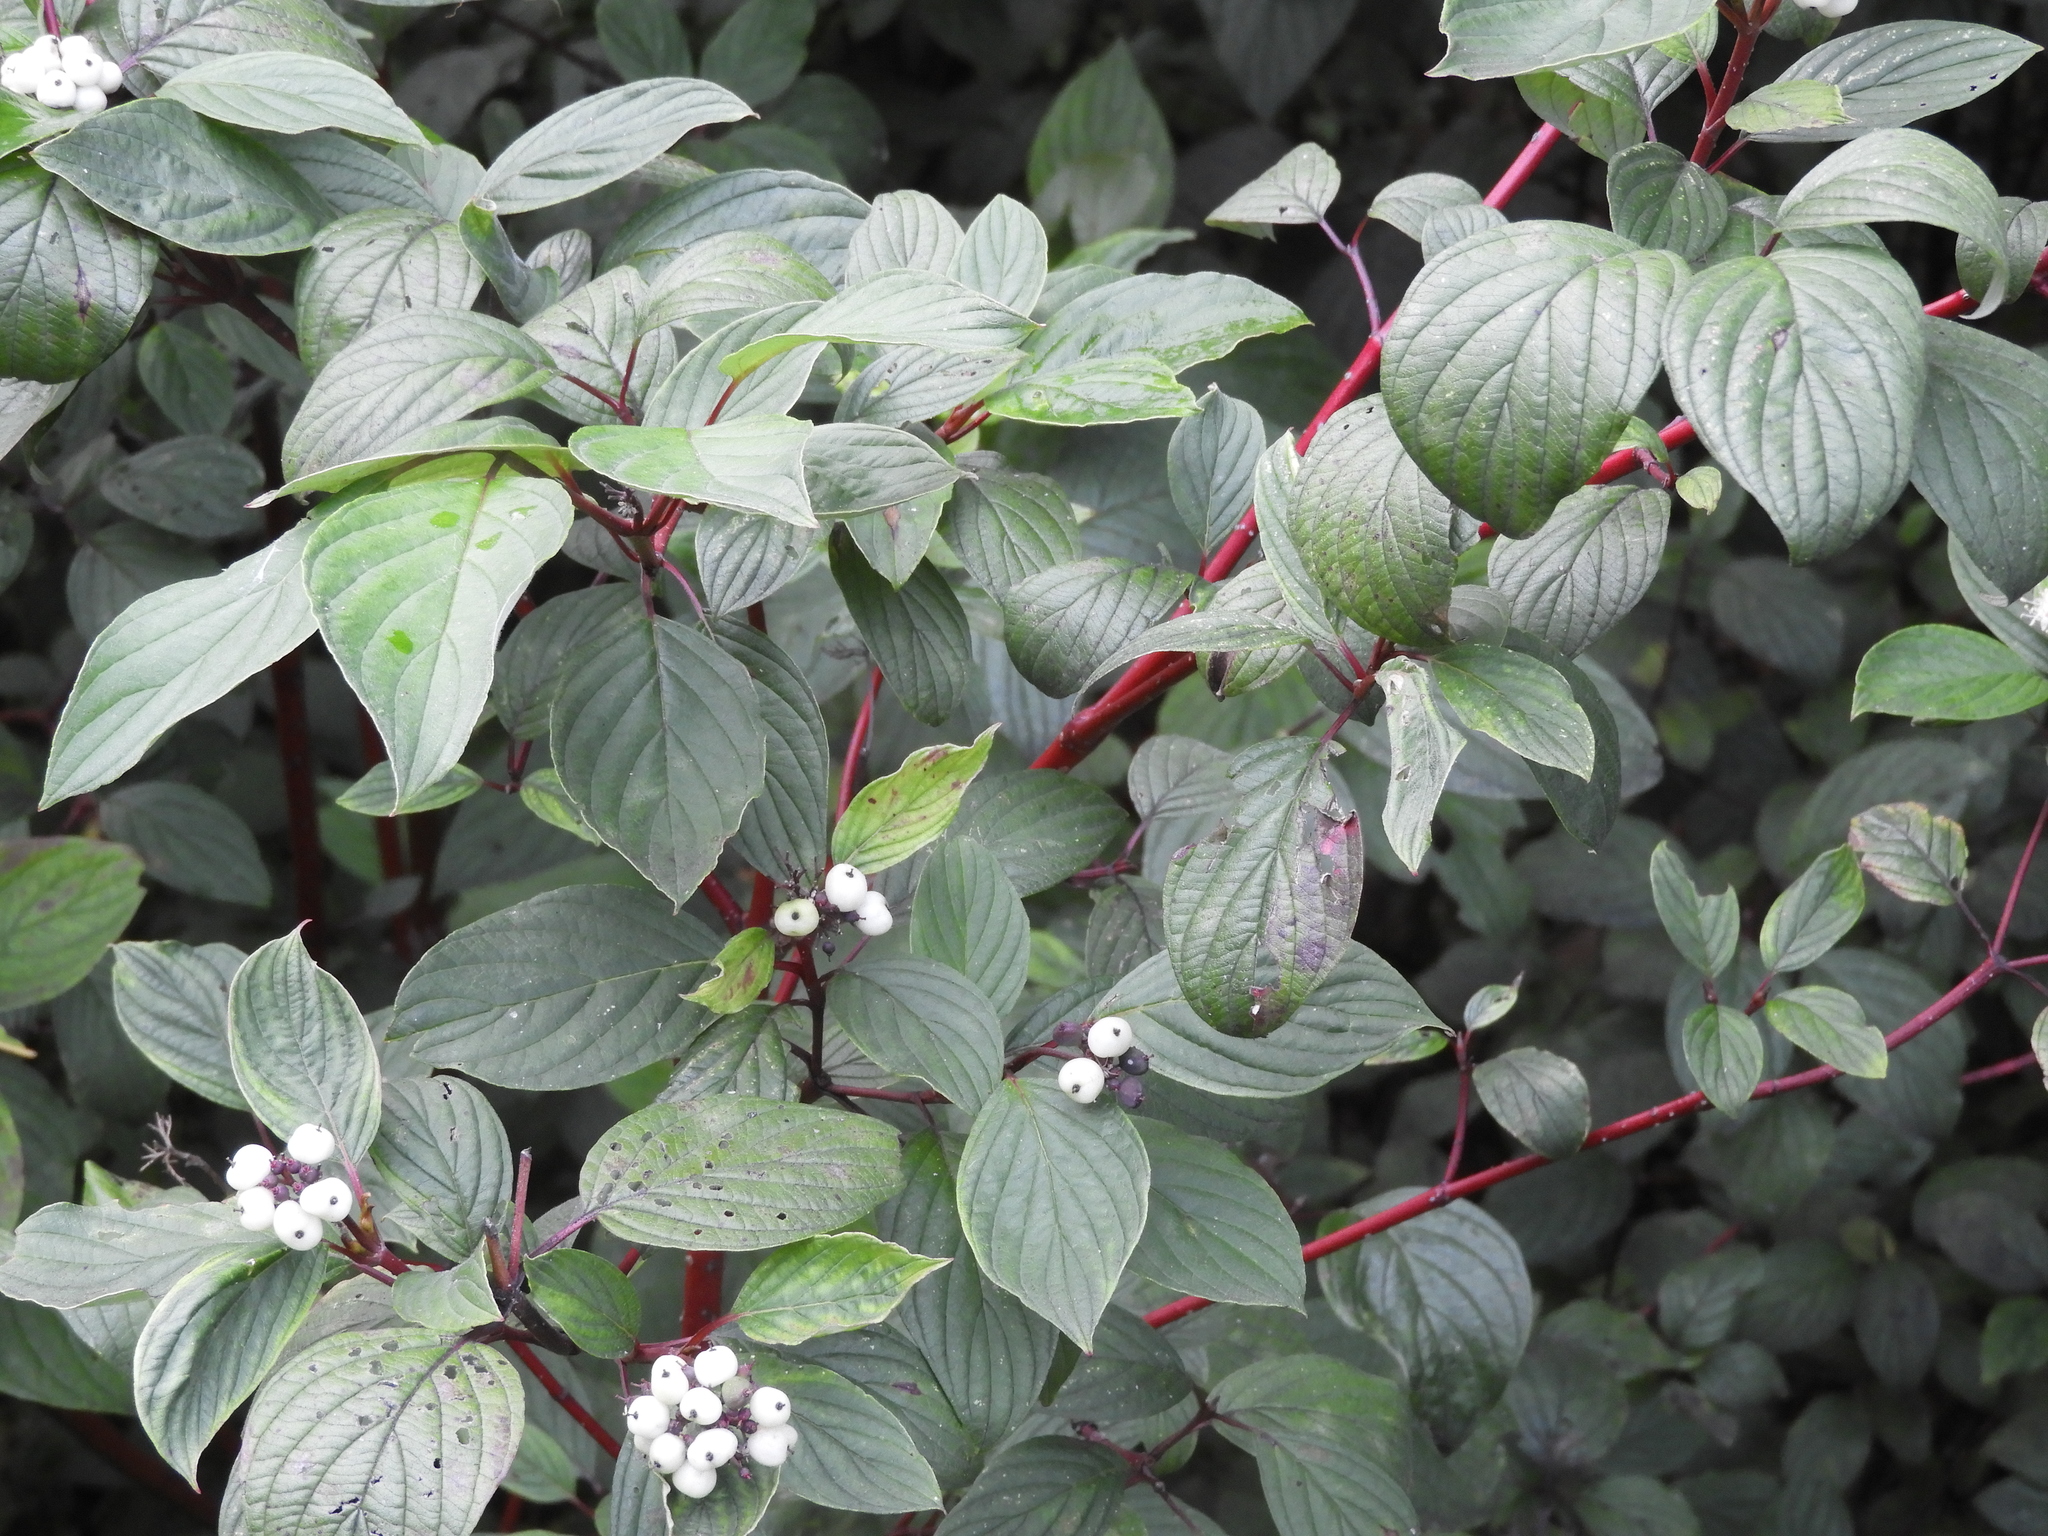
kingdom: Plantae
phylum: Tracheophyta
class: Magnoliopsida
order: Cornales
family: Cornaceae
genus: Cornus
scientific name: Cornus sericea
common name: Red-osier dogwood
